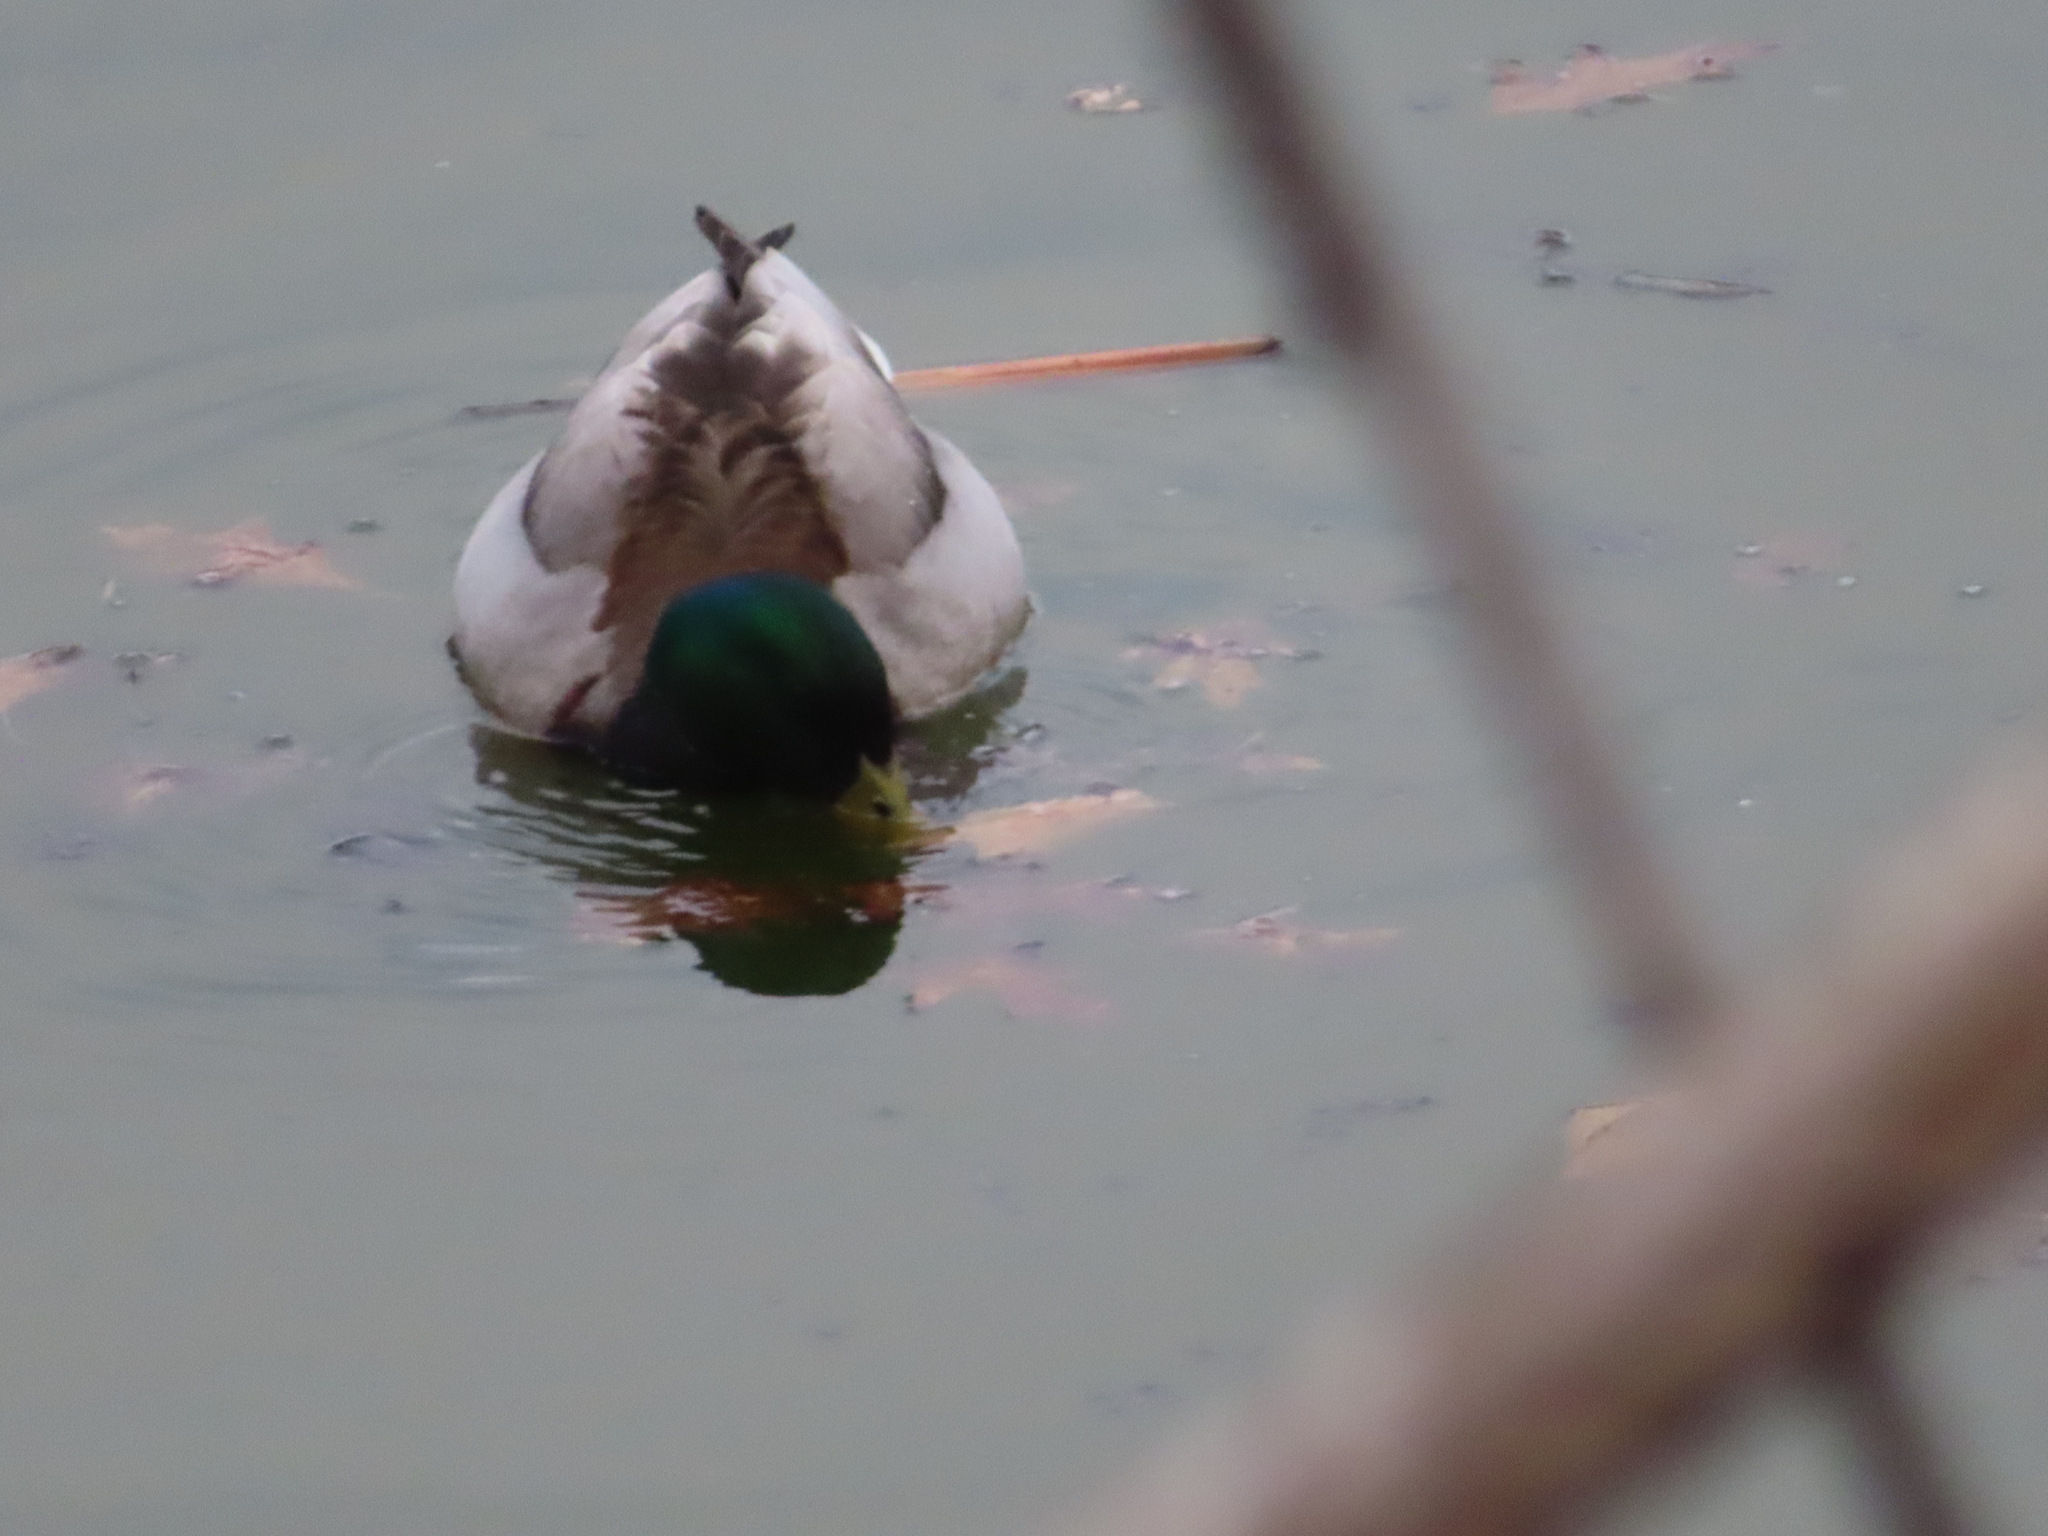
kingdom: Animalia
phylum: Chordata
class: Aves
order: Anseriformes
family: Anatidae
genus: Anas
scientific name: Anas platyrhynchos
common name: Mallard
